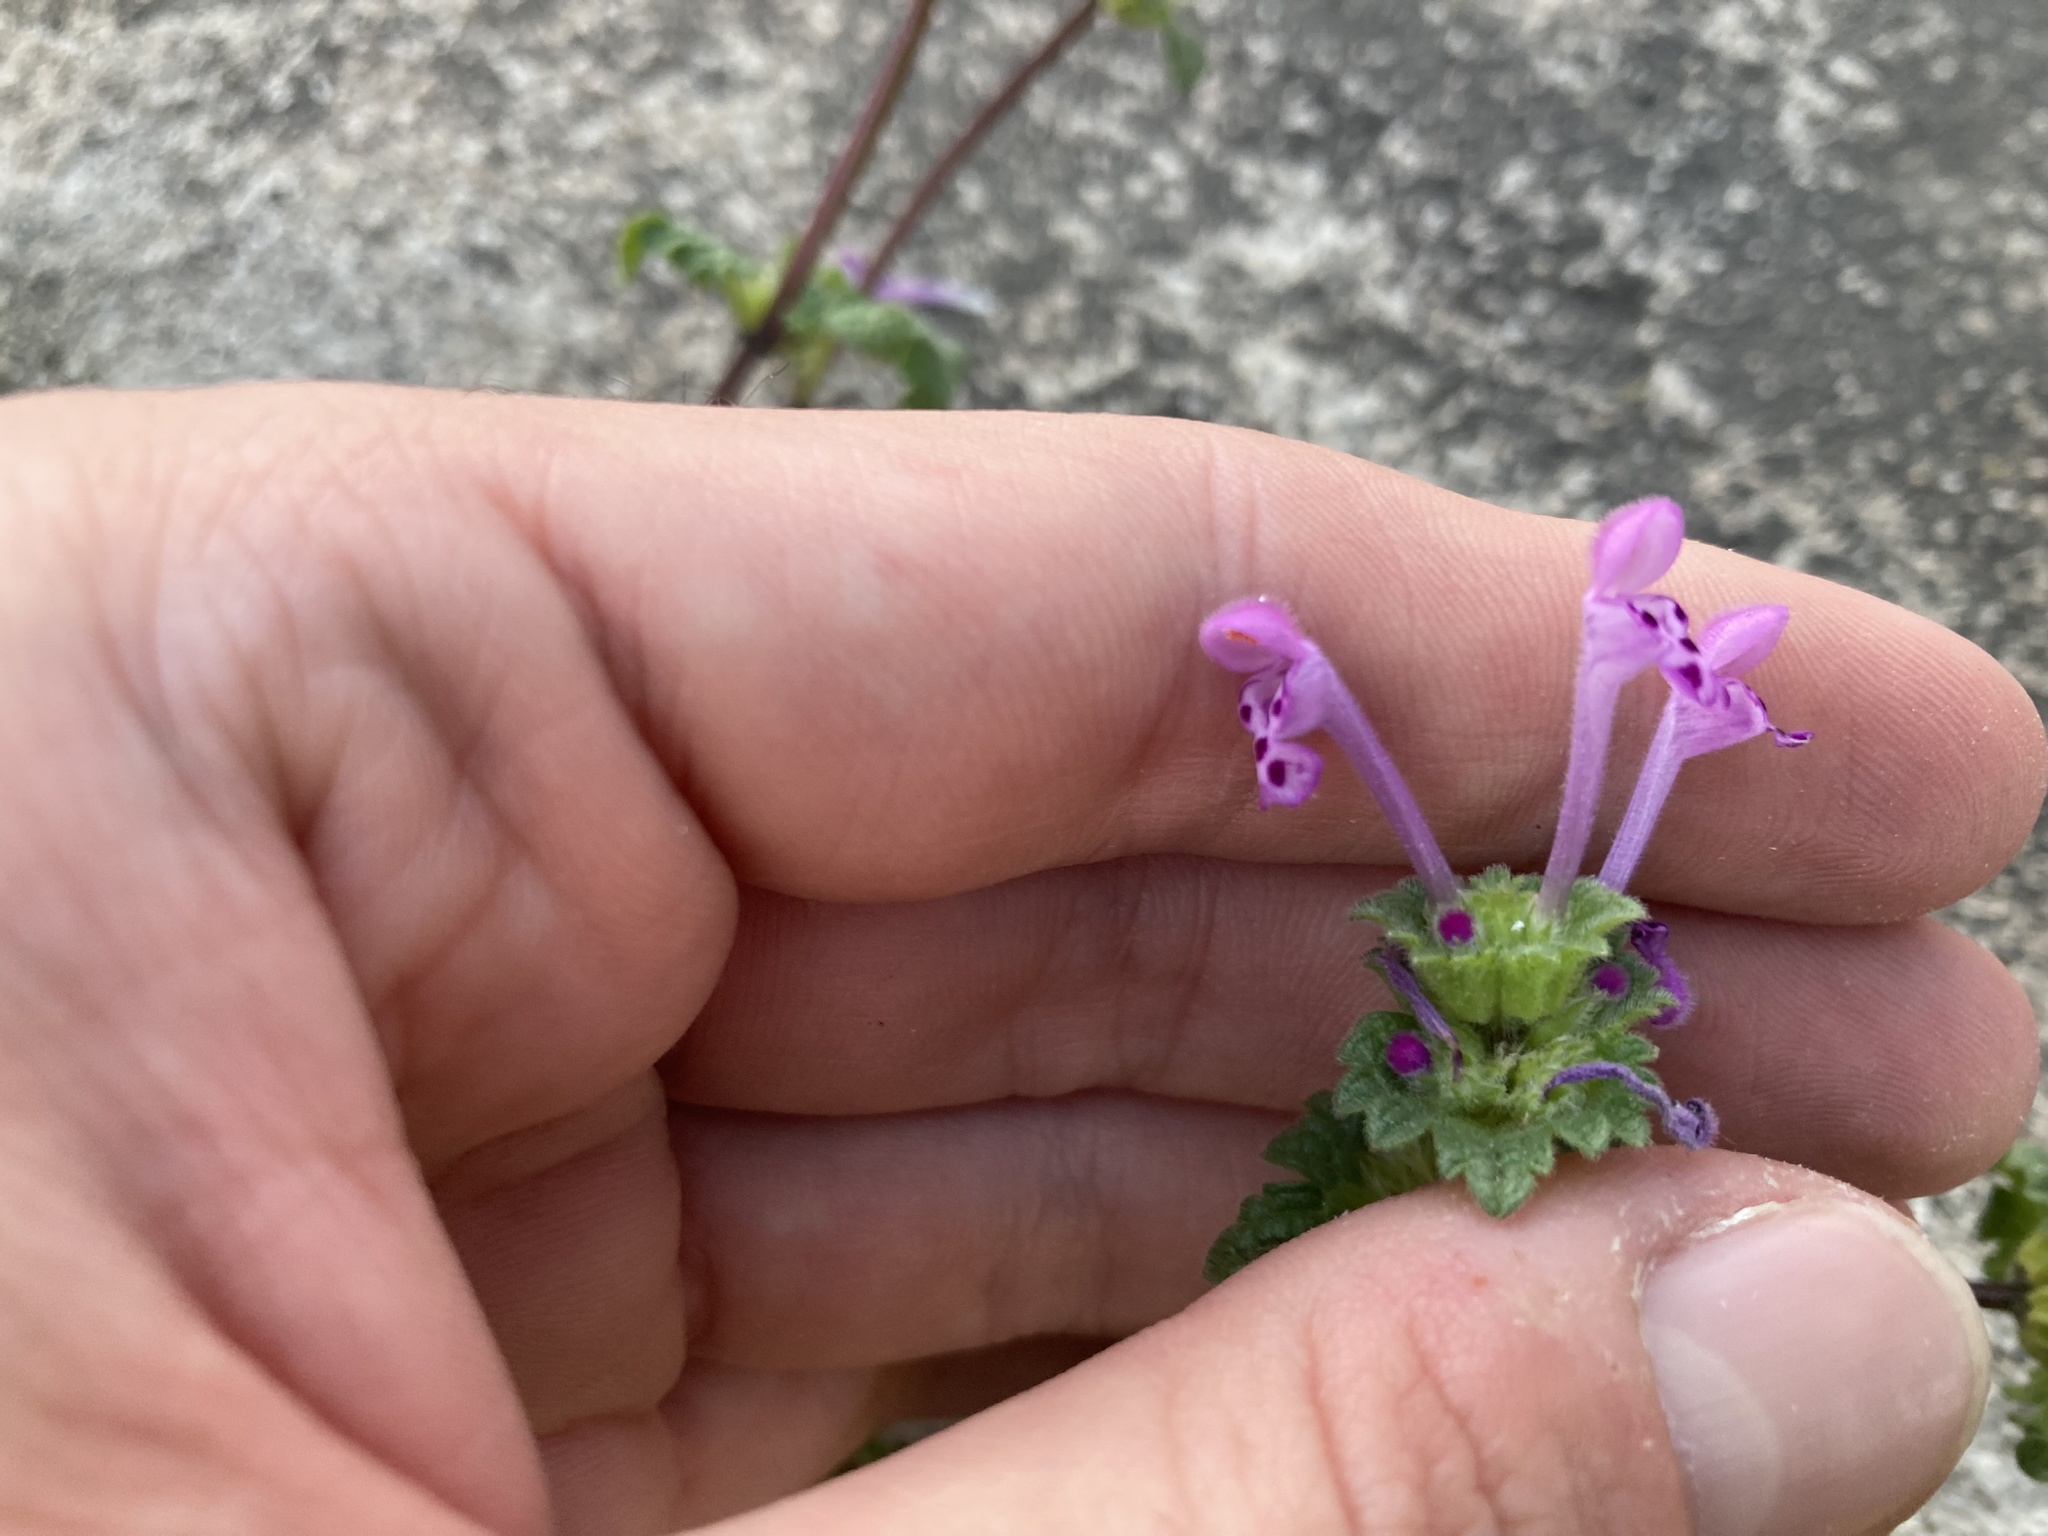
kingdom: Plantae
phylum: Tracheophyta
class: Magnoliopsida
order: Lamiales
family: Lamiaceae
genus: Lamium
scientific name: Lamium amplexicaule
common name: Henbit dead-nettle
